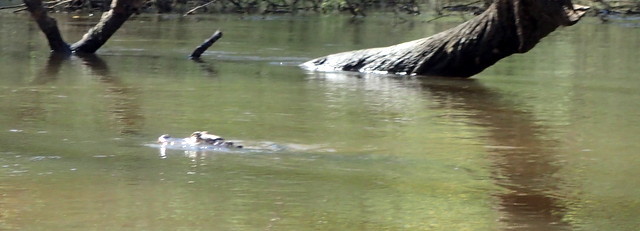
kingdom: Animalia
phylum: Chordata
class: Crocodylia
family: Alligatoridae
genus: Alligator
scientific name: Alligator mississippiensis
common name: American alligator
